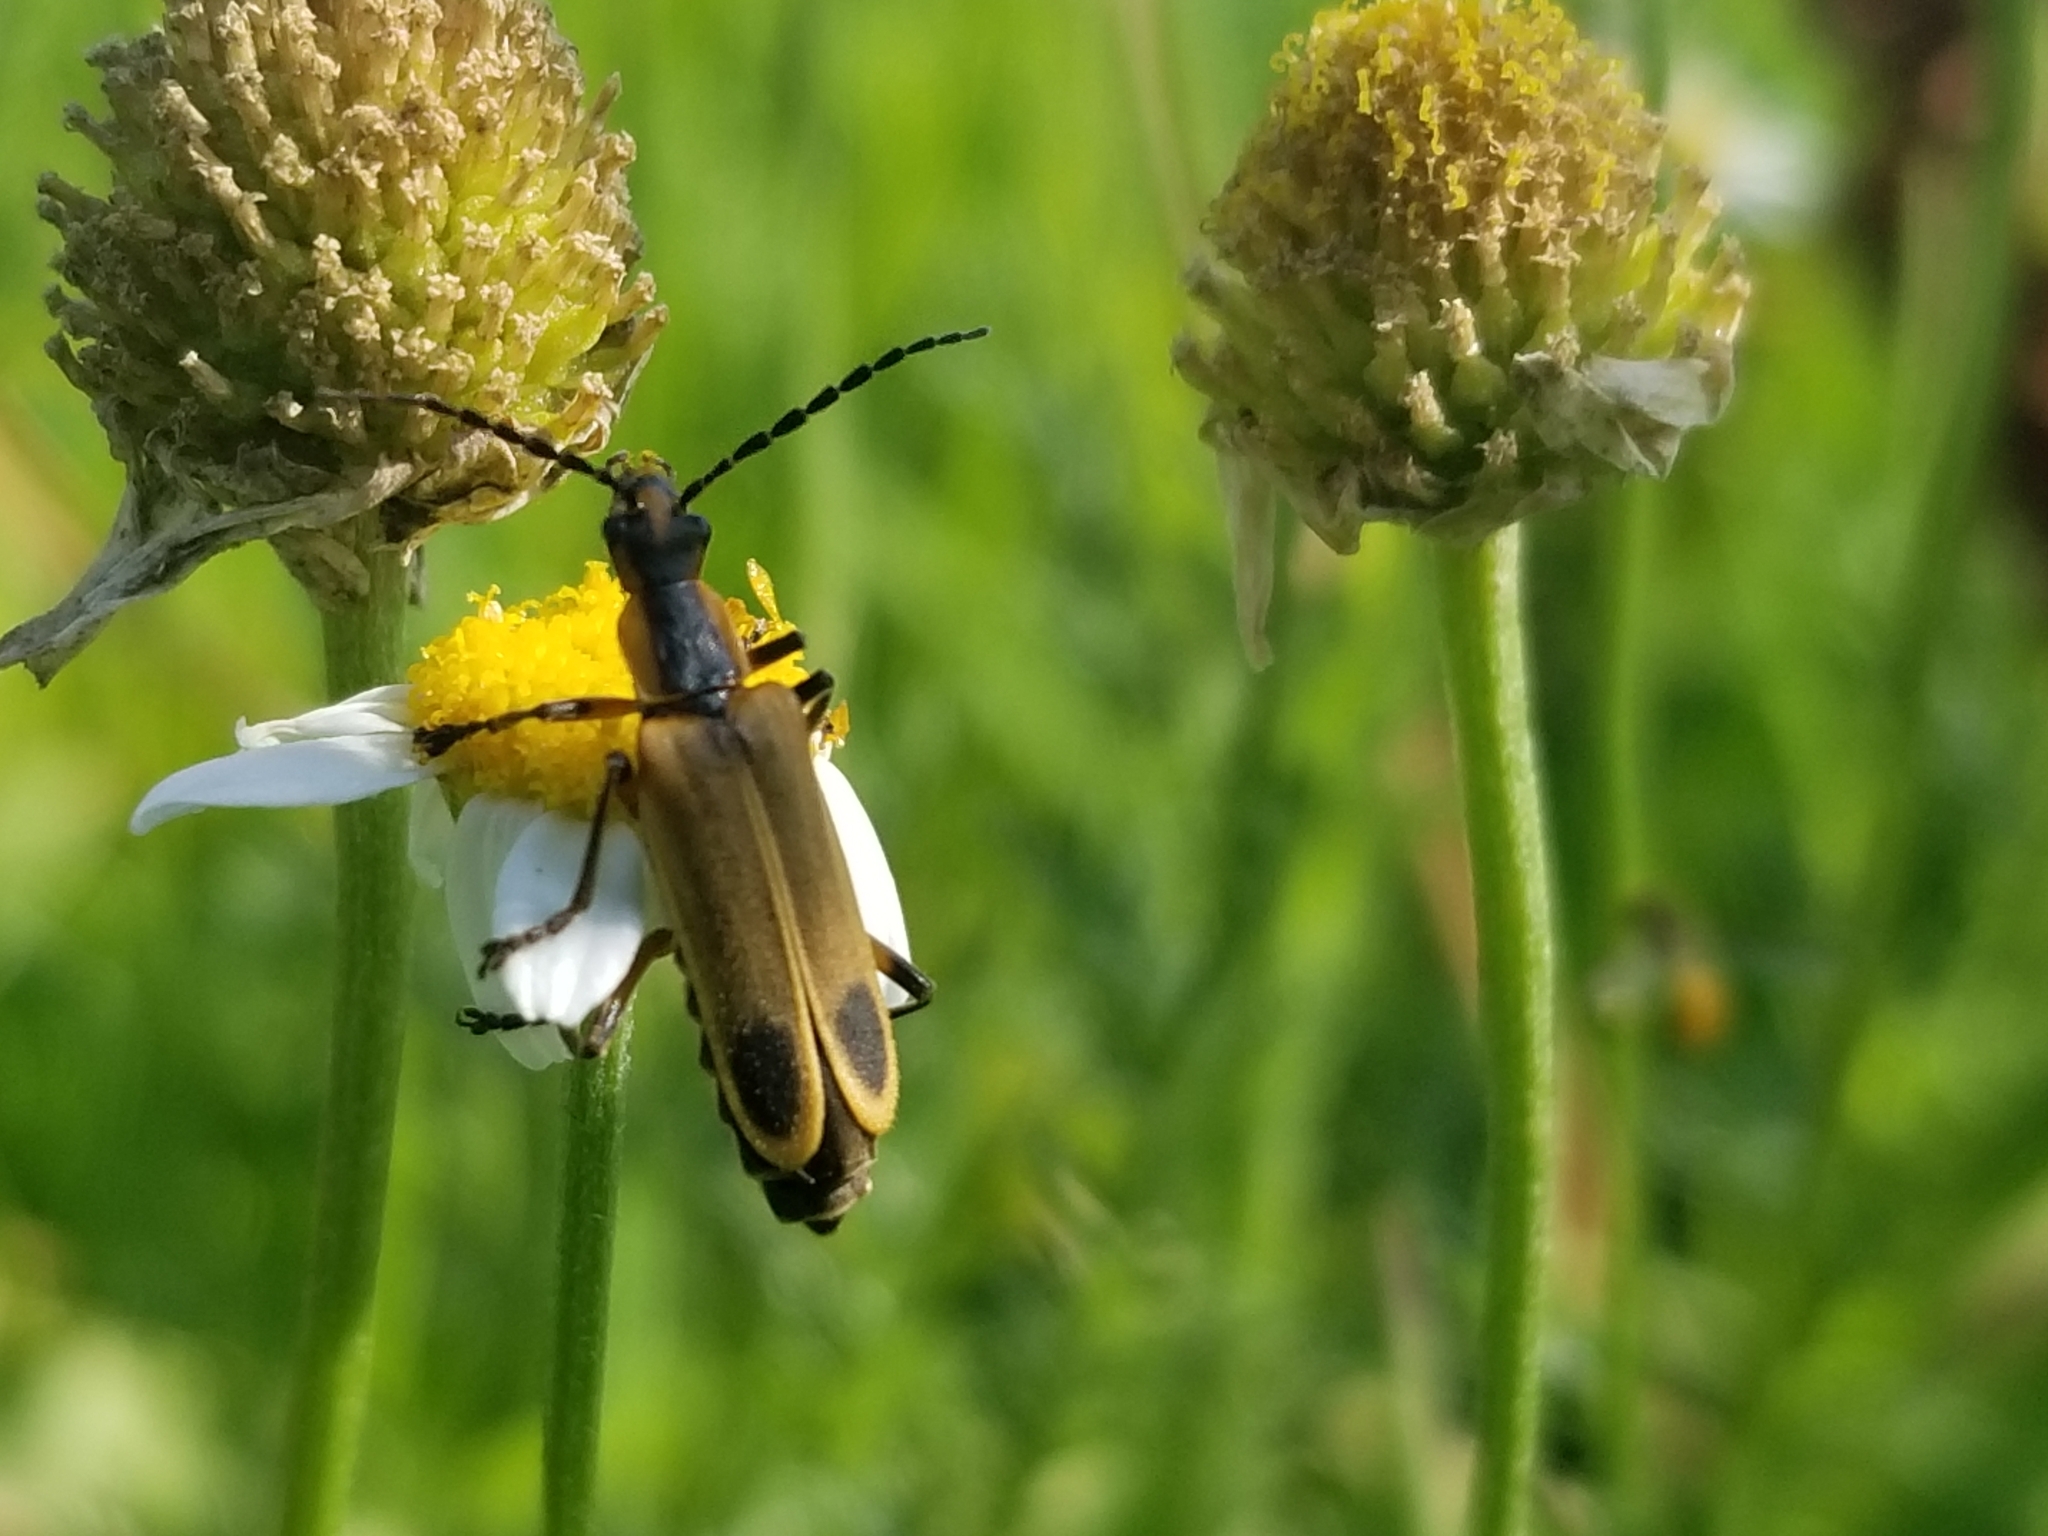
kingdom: Animalia
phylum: Arthropoda
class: Insecta
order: Coleoptera
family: Cantharidae
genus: Chauliognathus
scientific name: Chauliognathus marginatus
